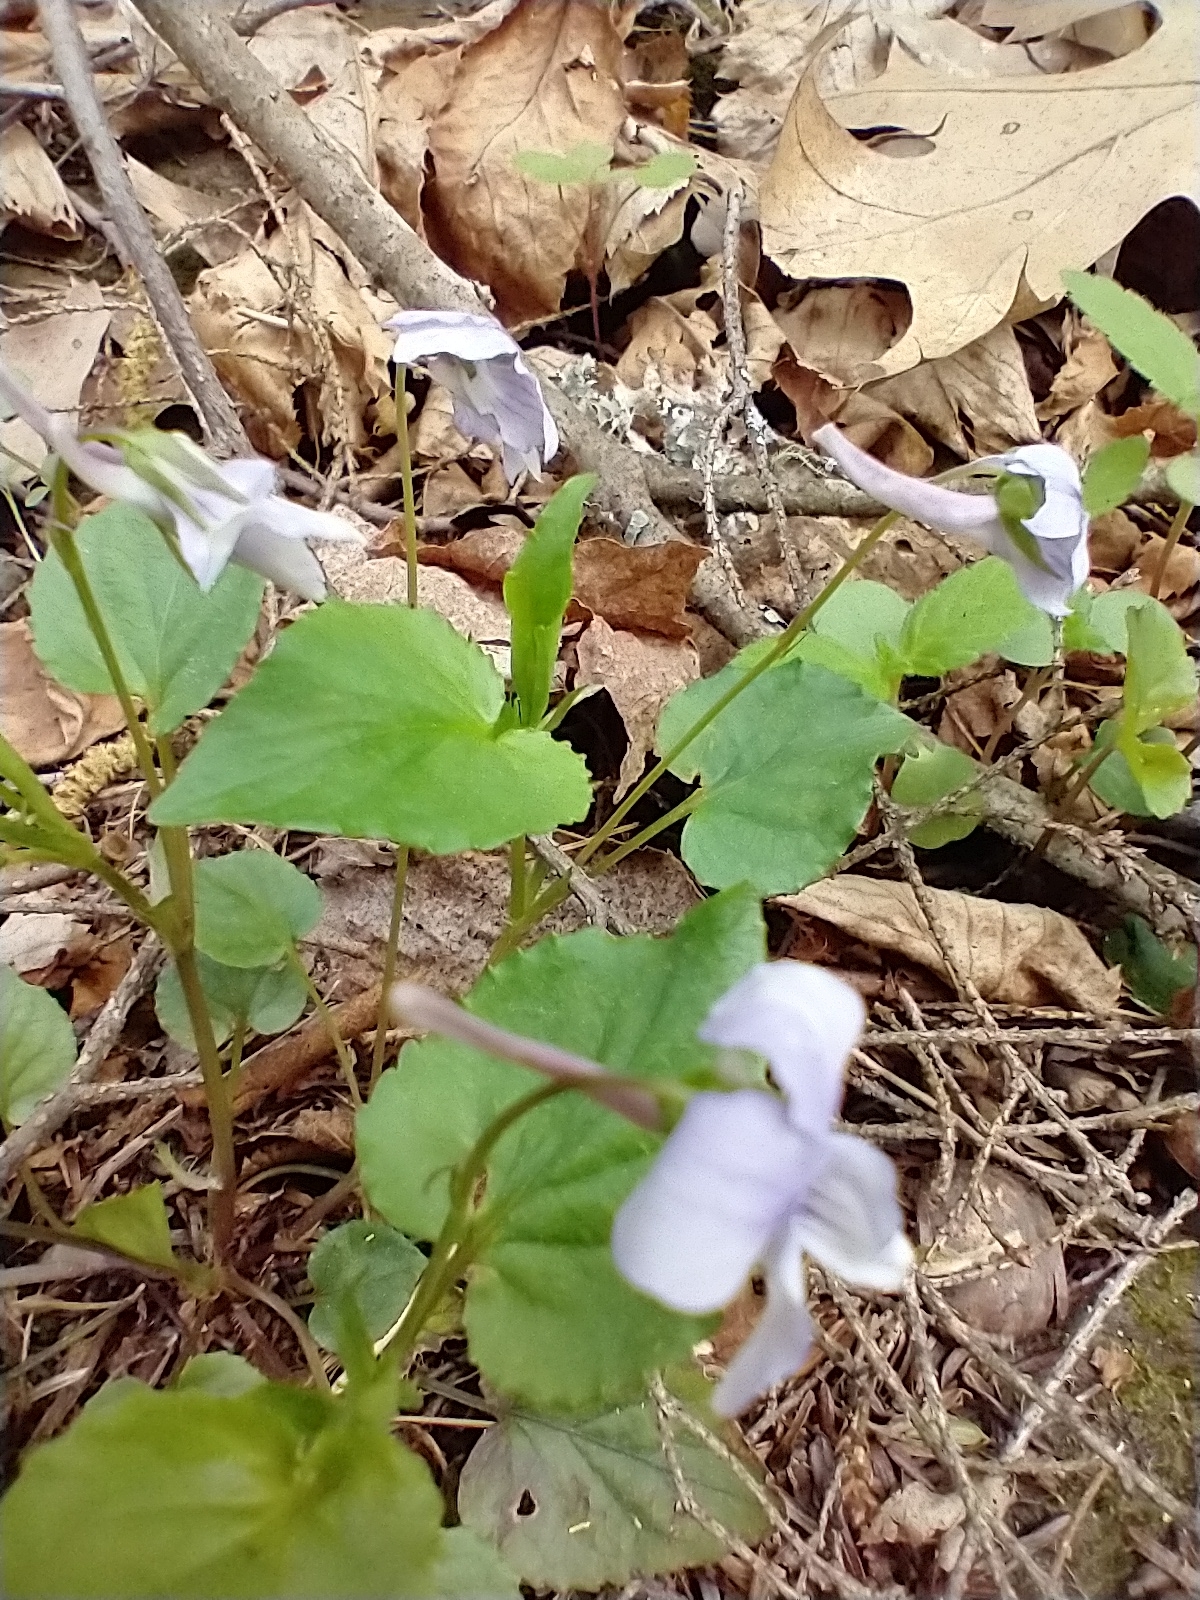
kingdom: Plantae
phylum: Tracheophyta
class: Magnoliopsida
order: Malpighiales
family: Violaceae
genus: Viola
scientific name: Viola rostrata
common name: Long-spur violet
